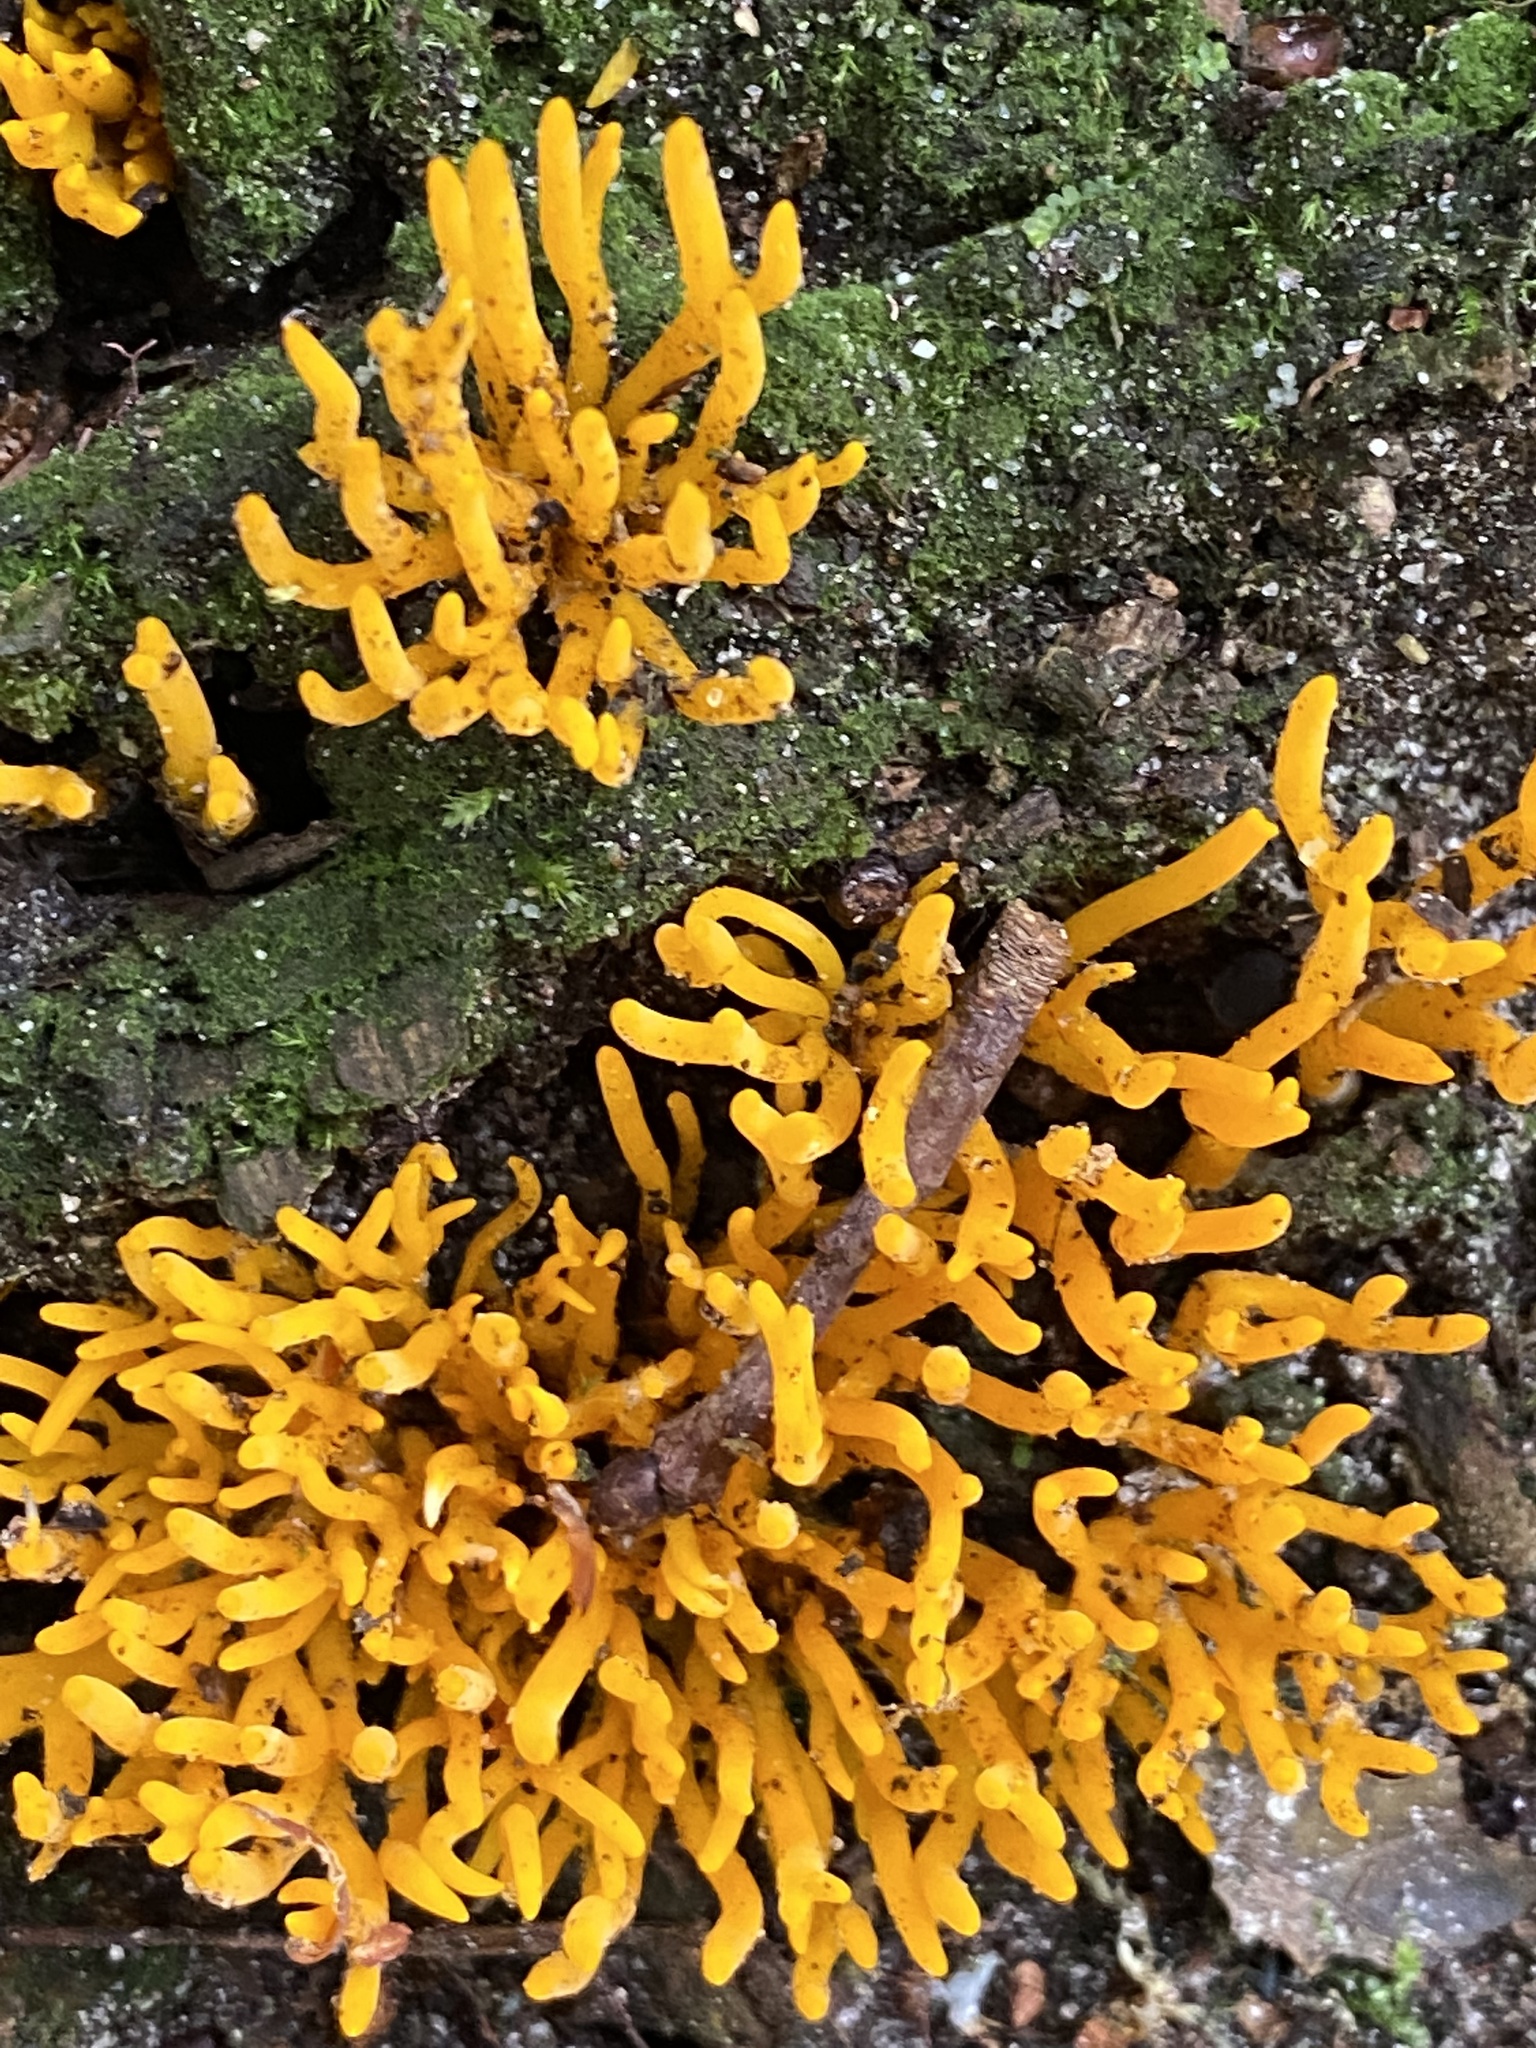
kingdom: Fungi
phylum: Basidiomycota
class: Dacrymycetes
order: Dacrymycetales
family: Dacrymycetaceae
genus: Calocera
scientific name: Calocera viscosa
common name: Yellow stagshorn
